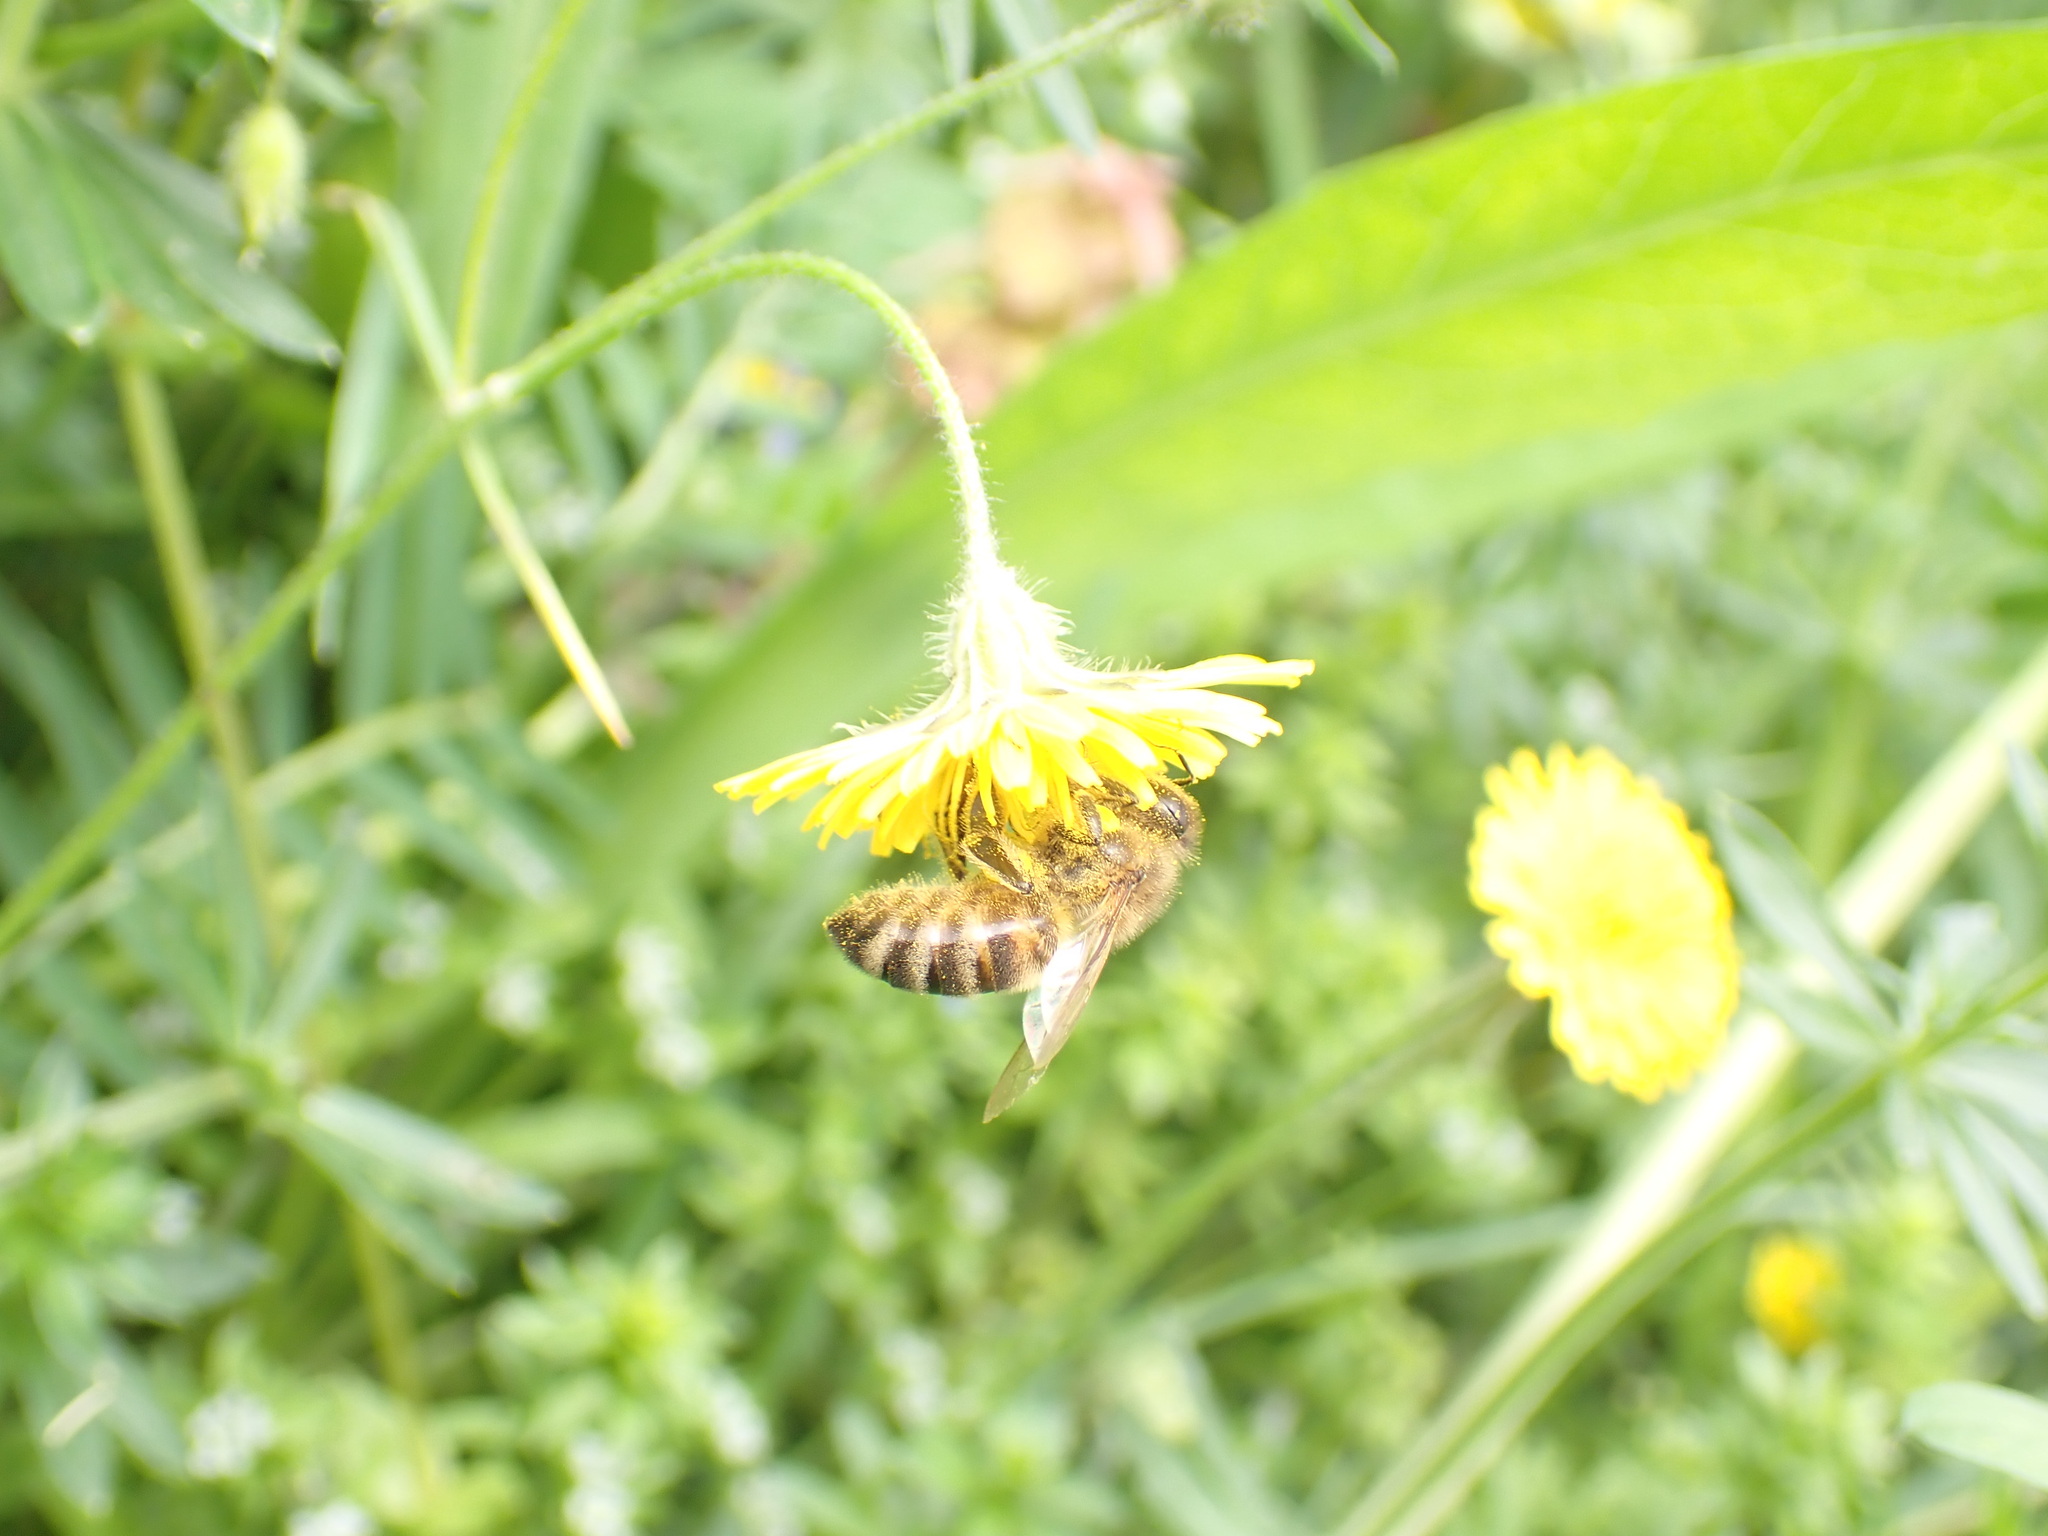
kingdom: Animalia
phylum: Arthropoda
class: Insecta
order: Hymenoptera
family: Apidae
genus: Apis
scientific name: Apis mellifera
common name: Honey bee
